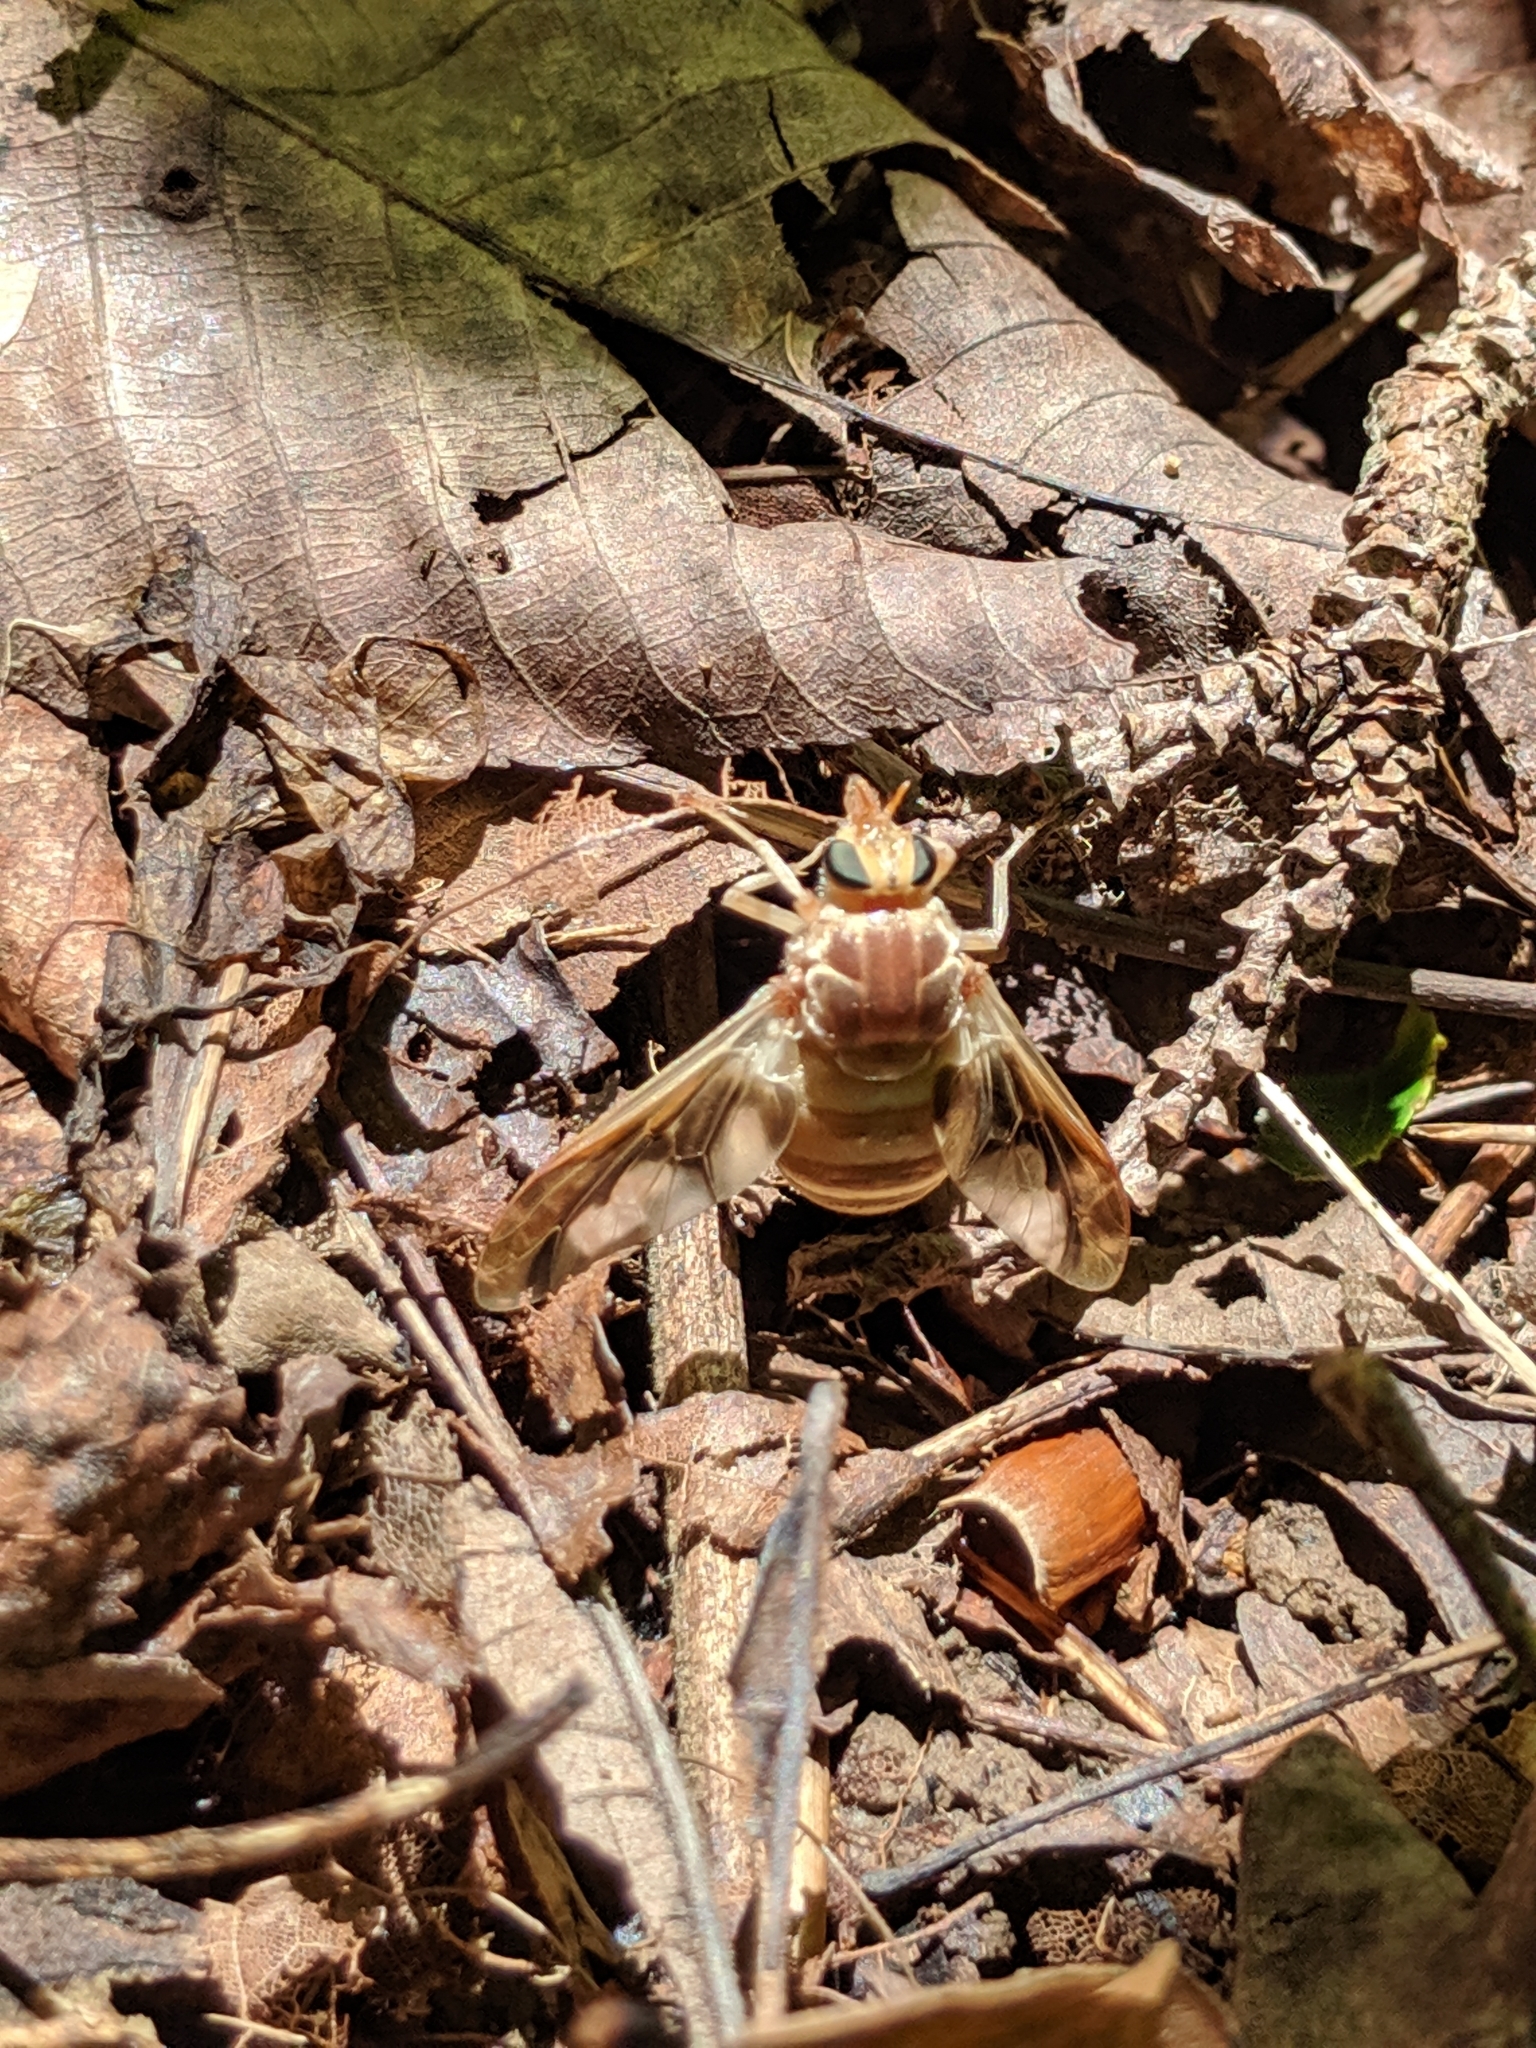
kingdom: Animalia
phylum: Arthropoda
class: Insecta
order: Diptera
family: Tabanidae
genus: Goniops
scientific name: Goniops chrysocoma
